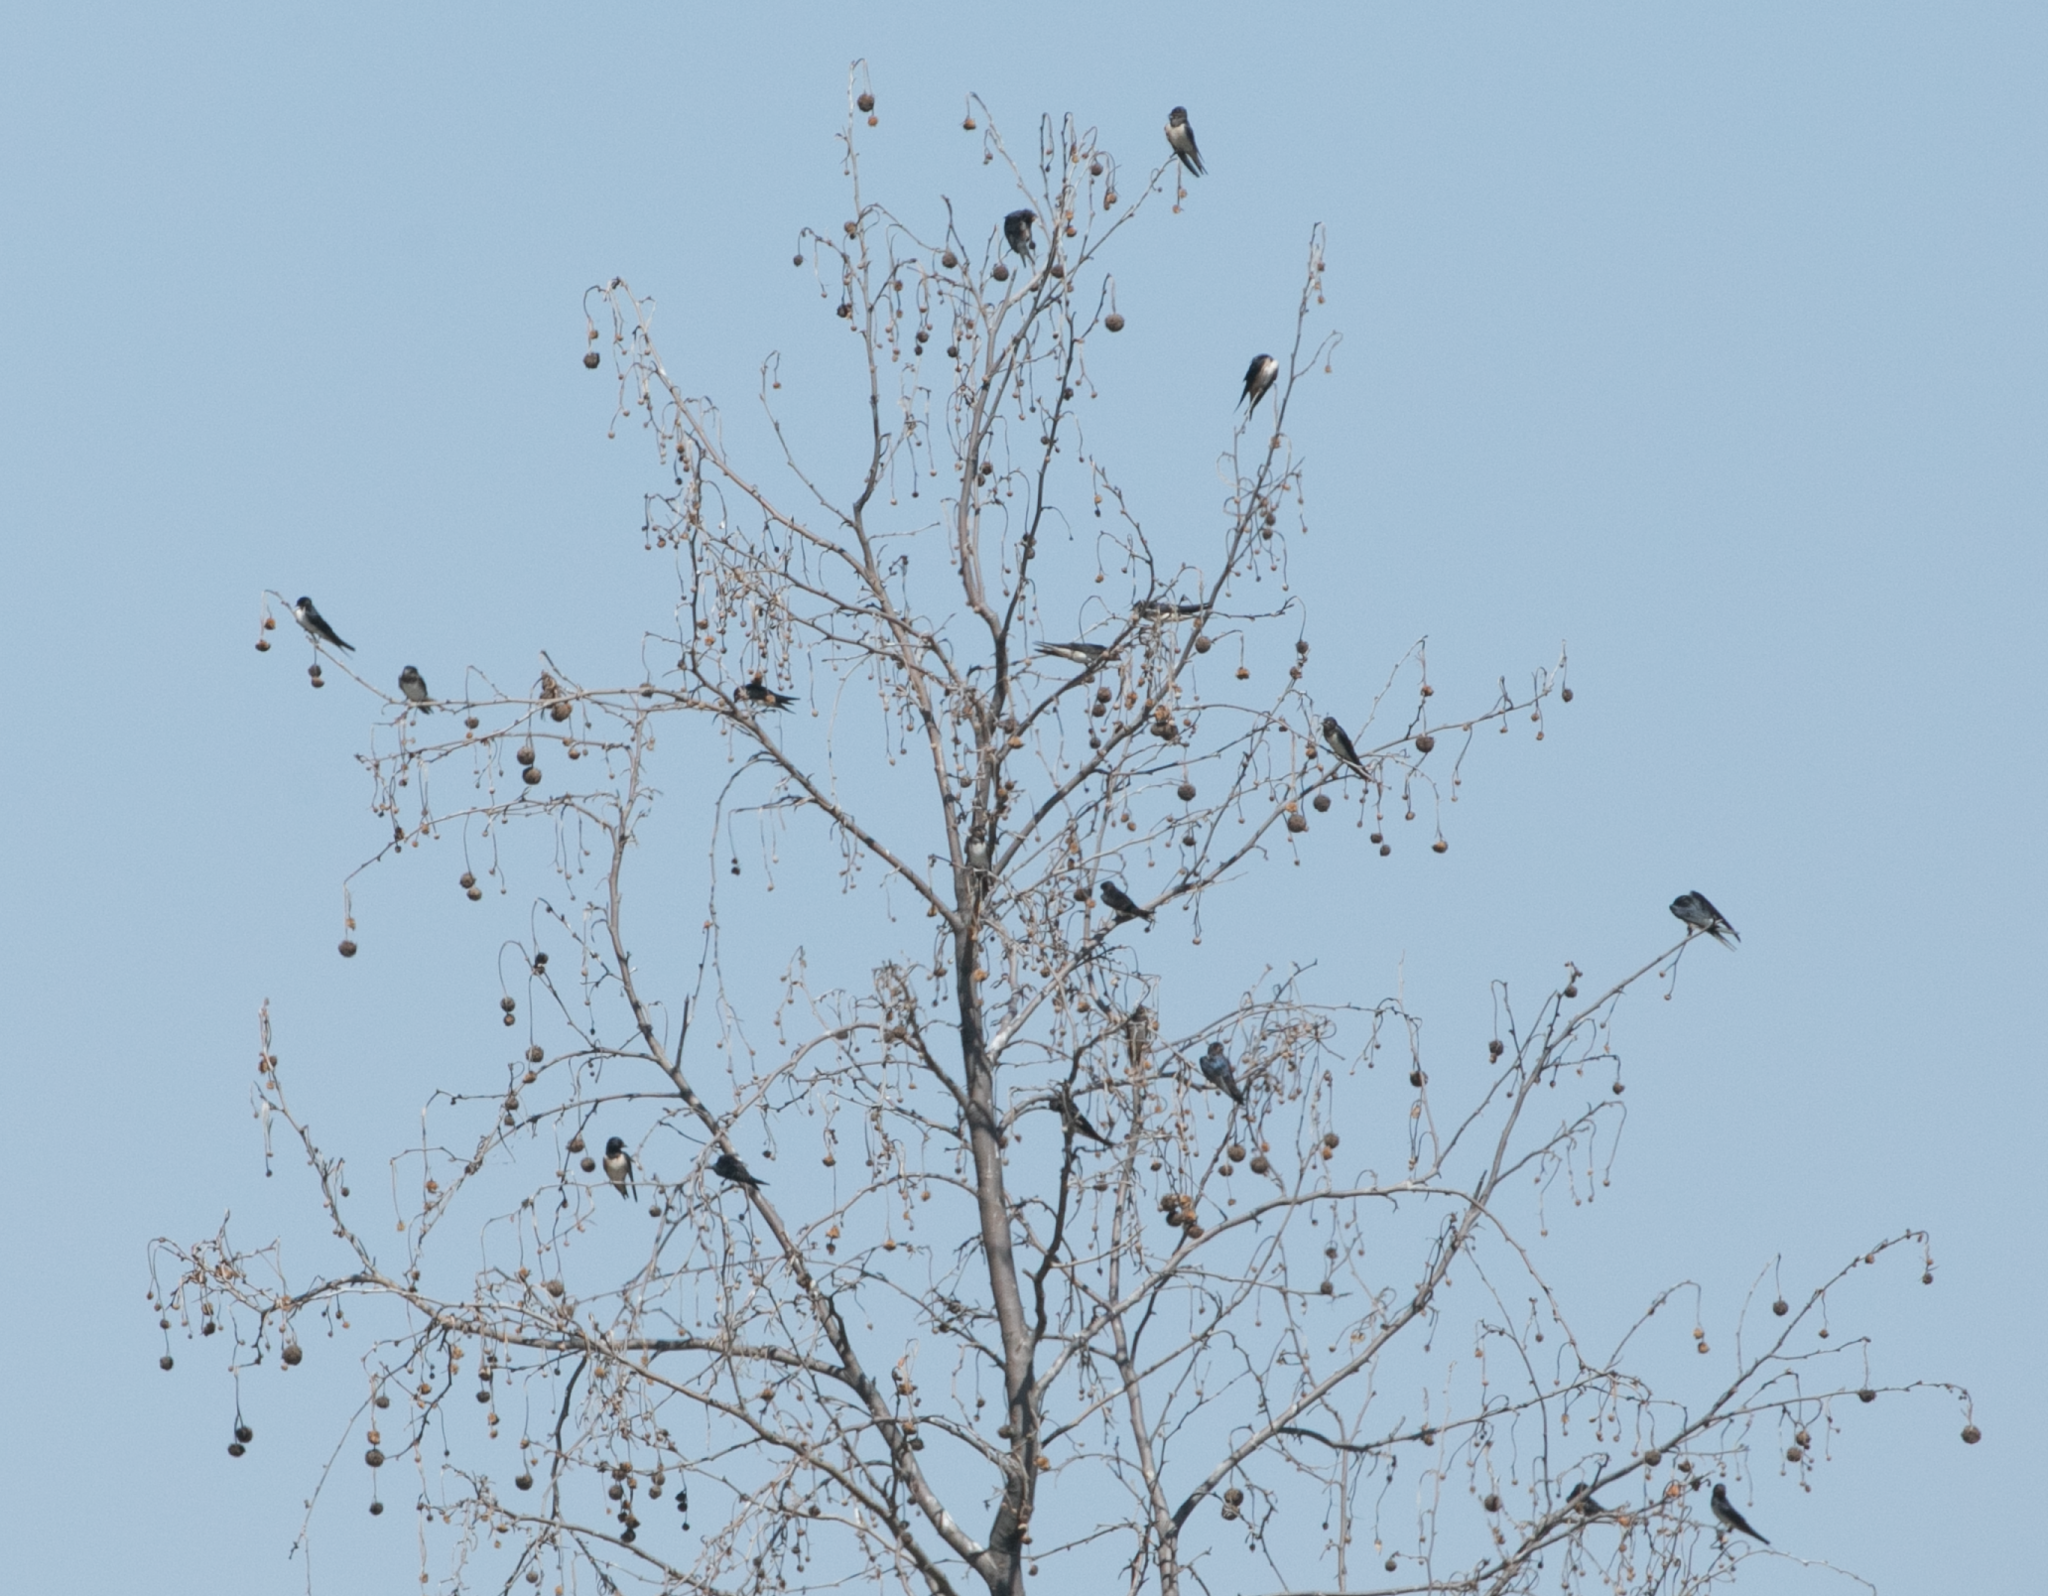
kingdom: Animalia
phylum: Chordata
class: Aves
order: Passeriformes
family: Hirundinidae
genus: Hirundo
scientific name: Hirundo rustica
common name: Barn swallow
